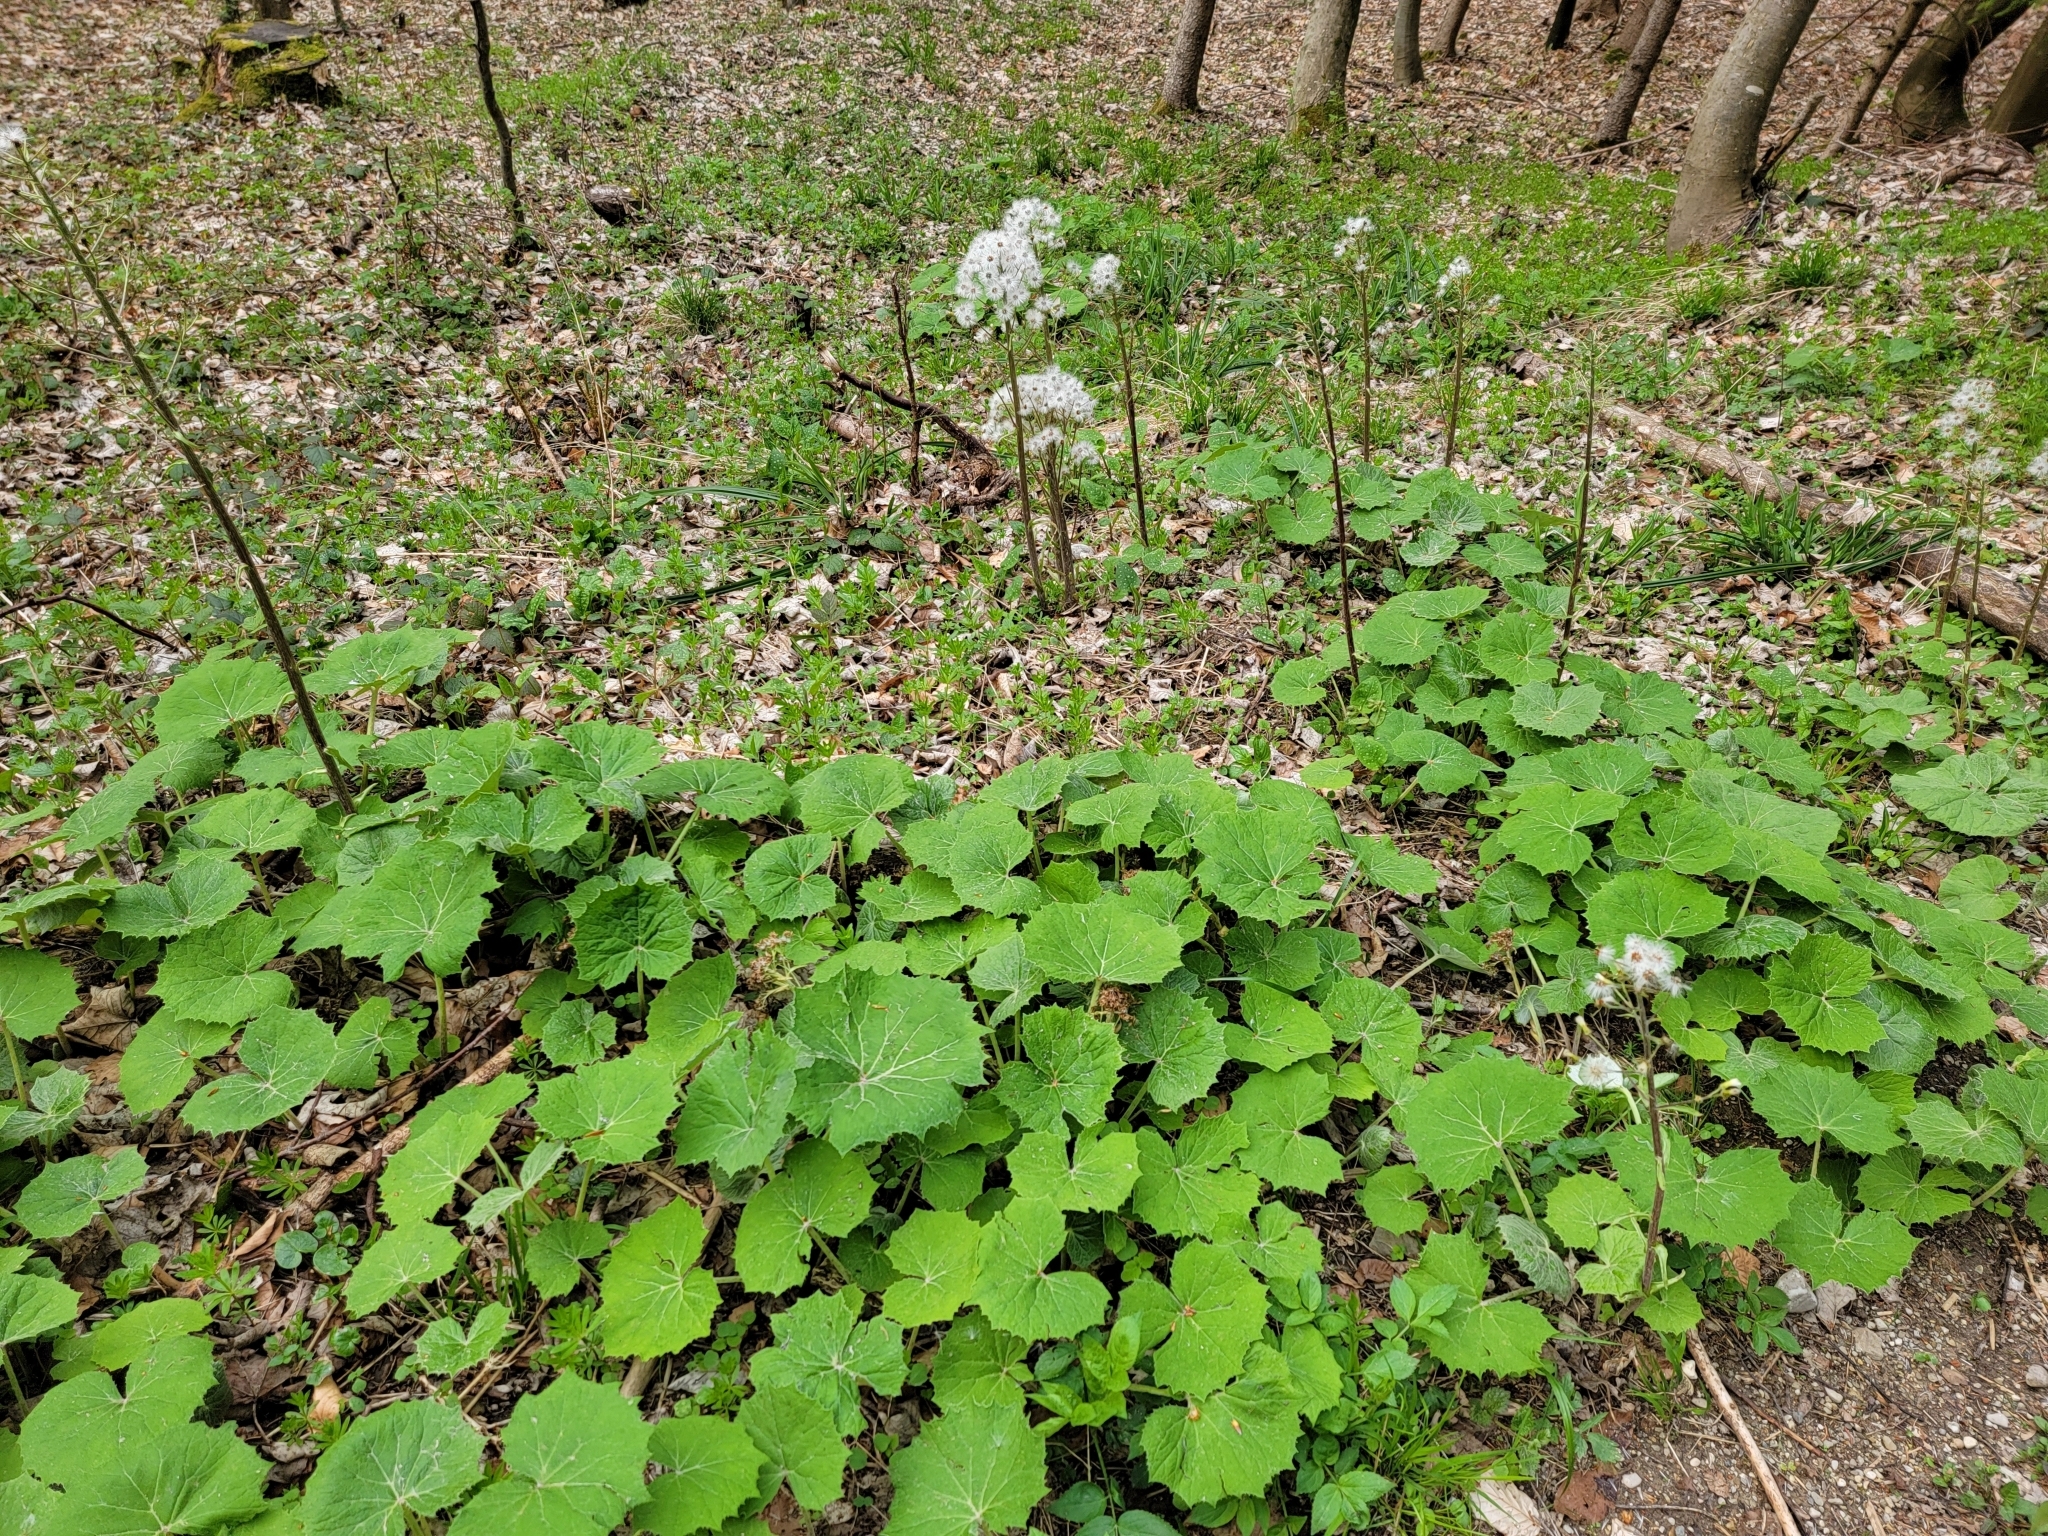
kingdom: Plantae
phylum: Tracheophyta
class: Magnoliopsida
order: Asterales
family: Asteraceae
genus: Petasites
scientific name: Petasites albus
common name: White butterbur
